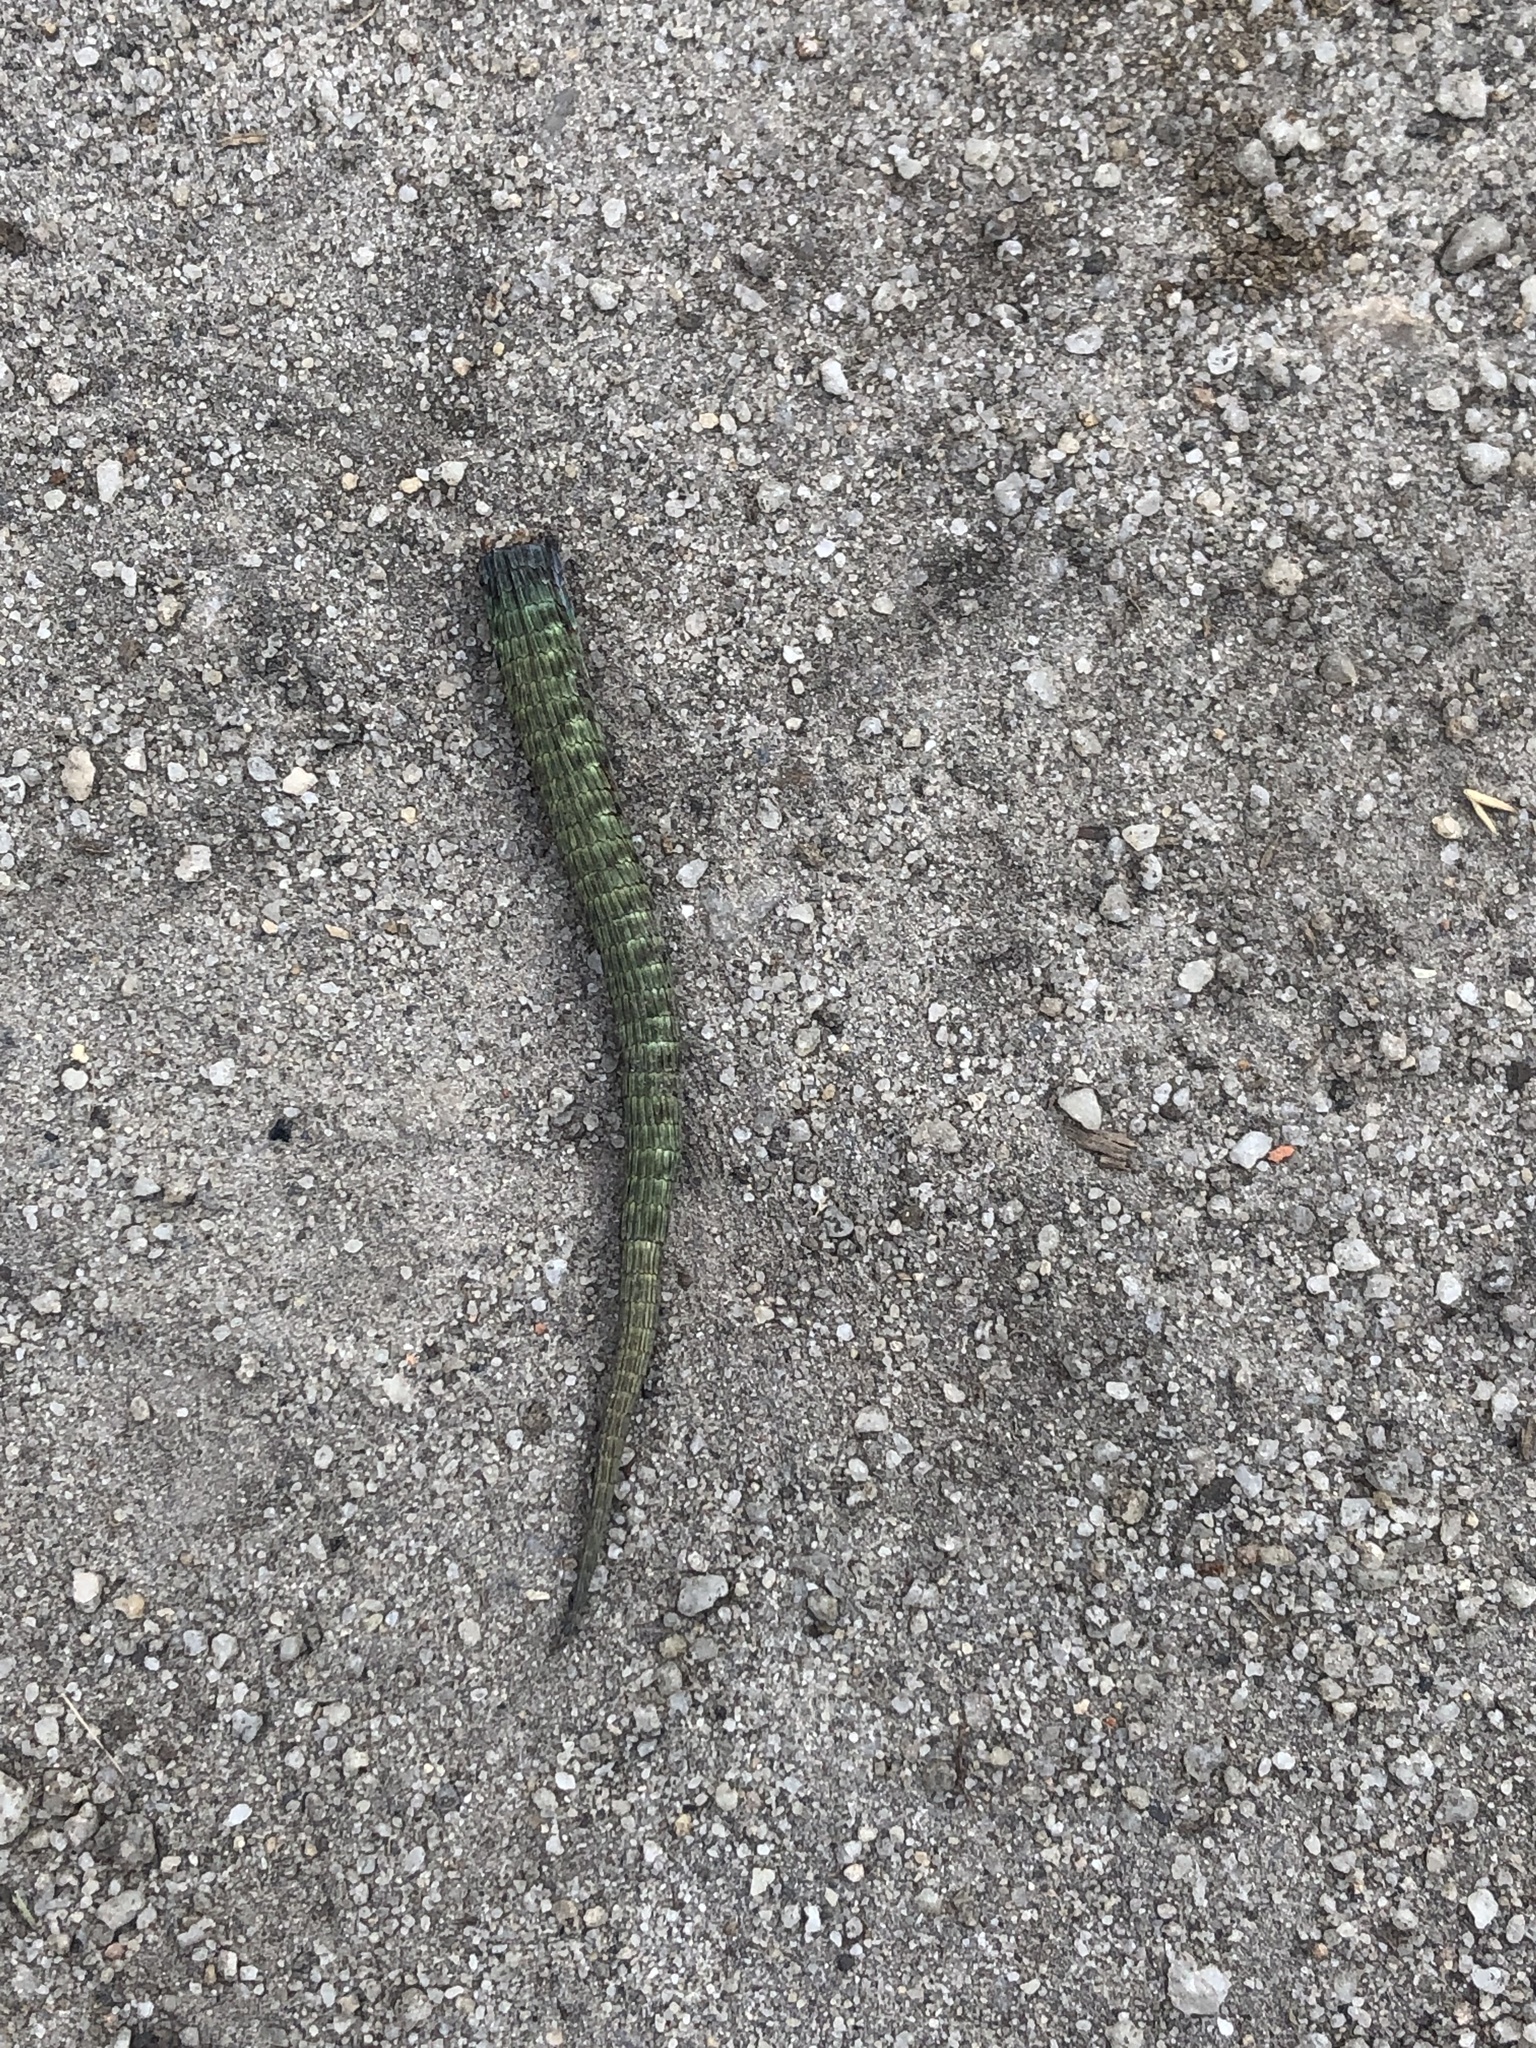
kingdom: Animalia
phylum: Chordata
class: Squamata
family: Lacertidae
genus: Zootoca
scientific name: Zootoca vivipara
